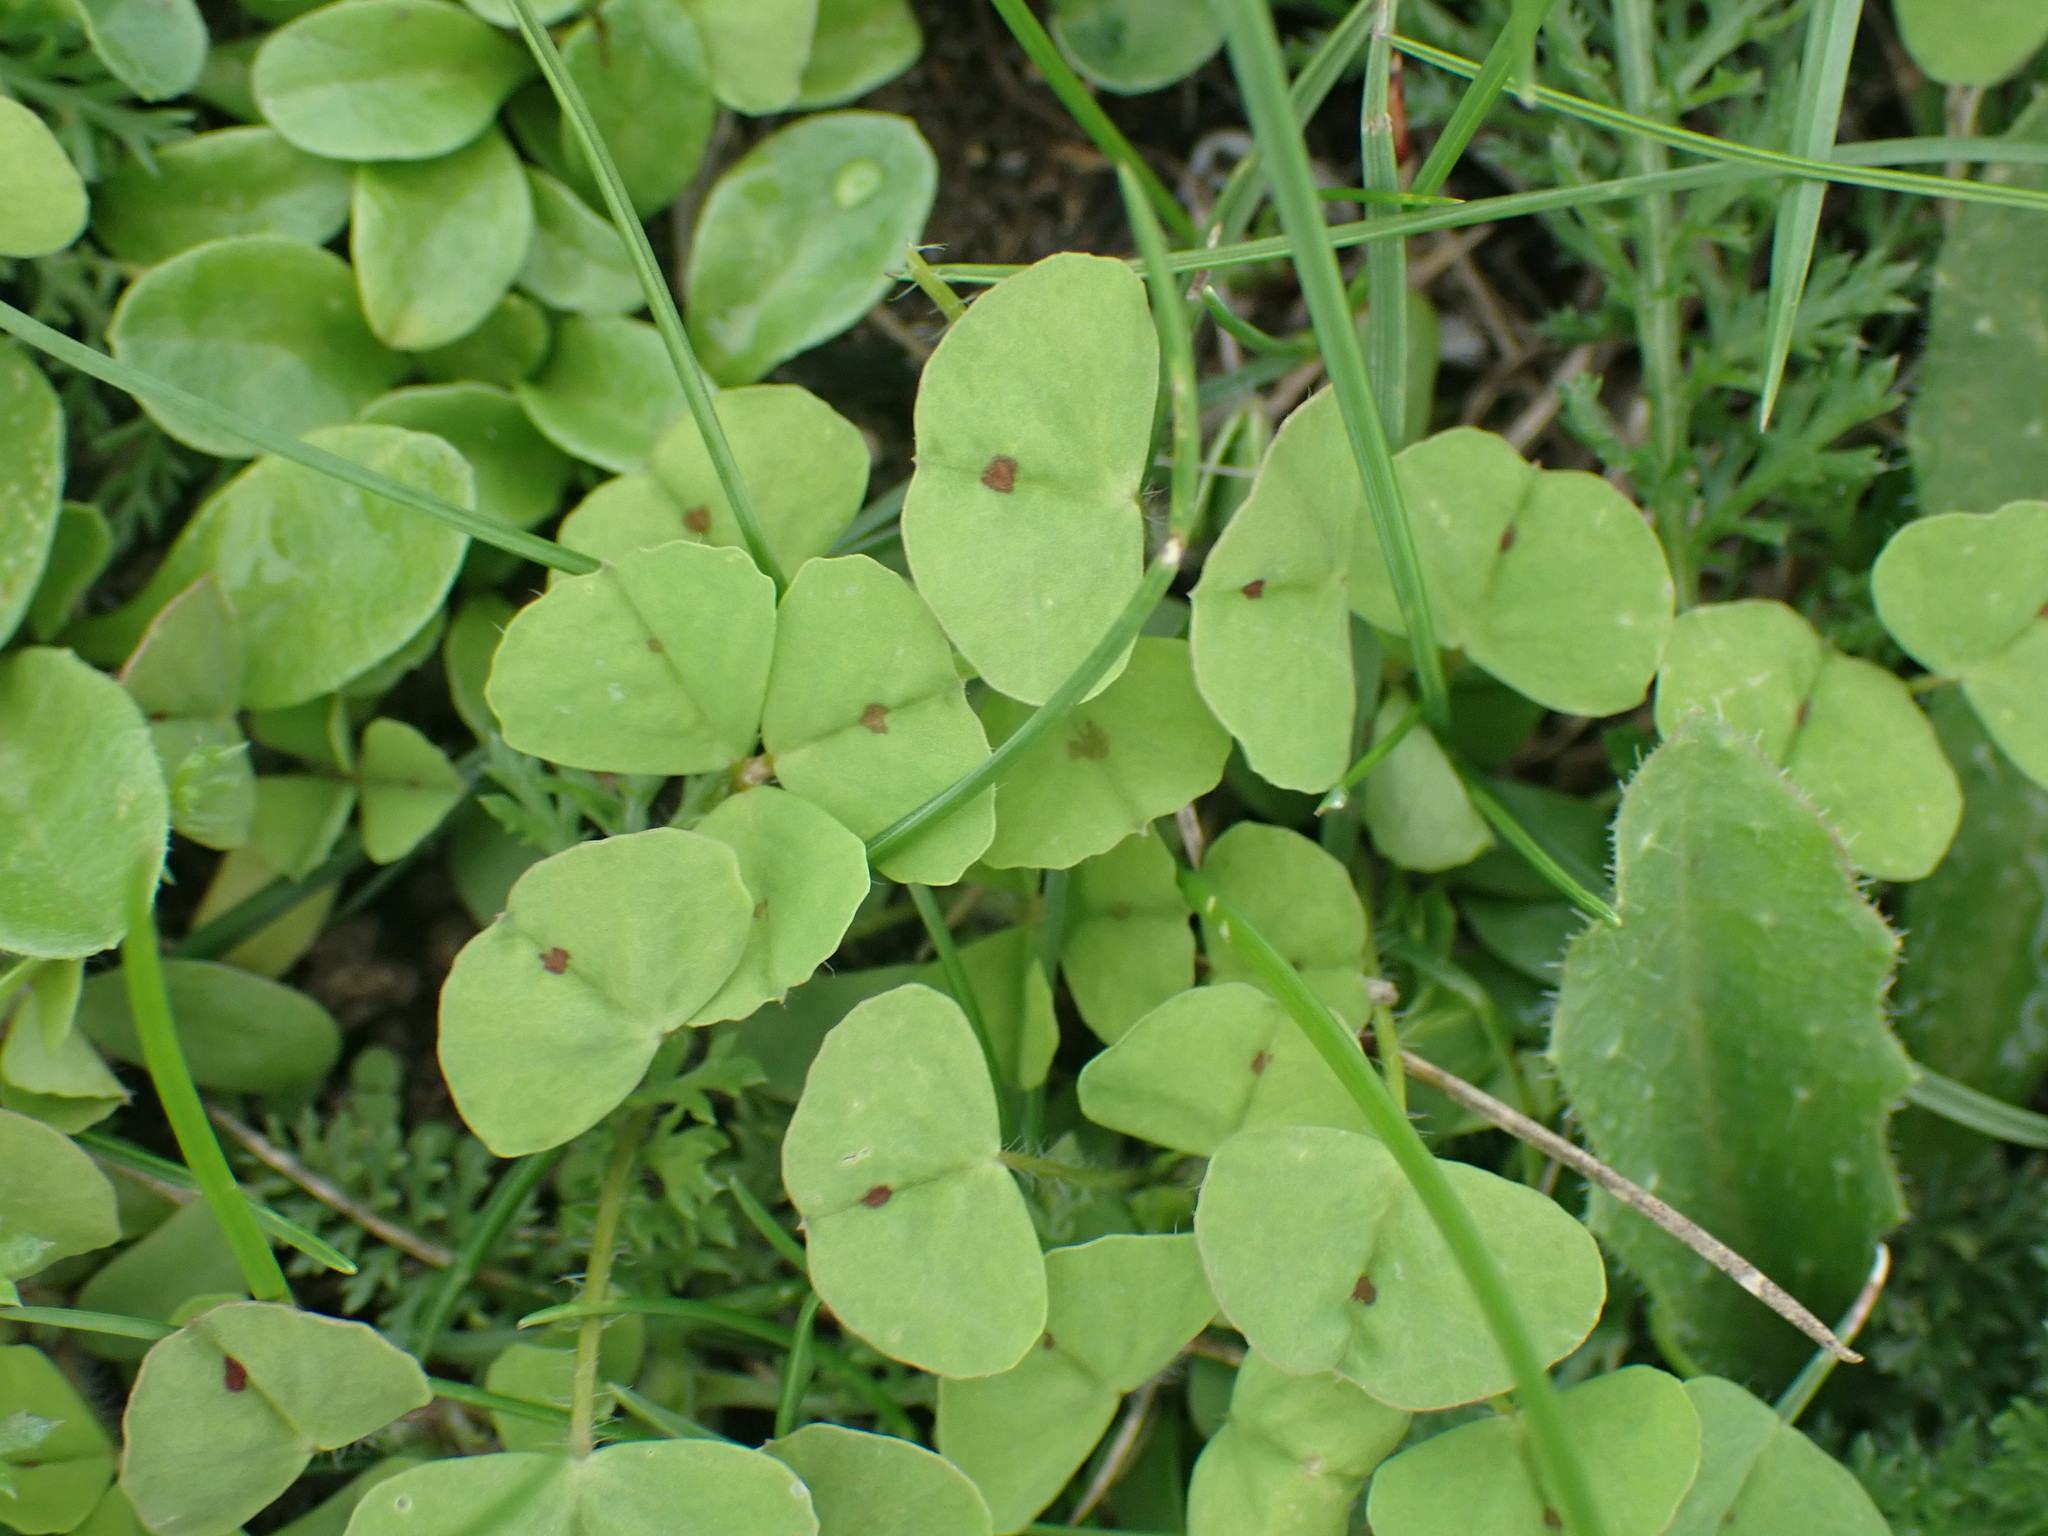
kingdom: Plantae
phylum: Tracheophyta
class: Magnoliopsida
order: Fabales
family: Fabaceae
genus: Medicago
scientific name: Medicago arabica
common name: Spotted medick
